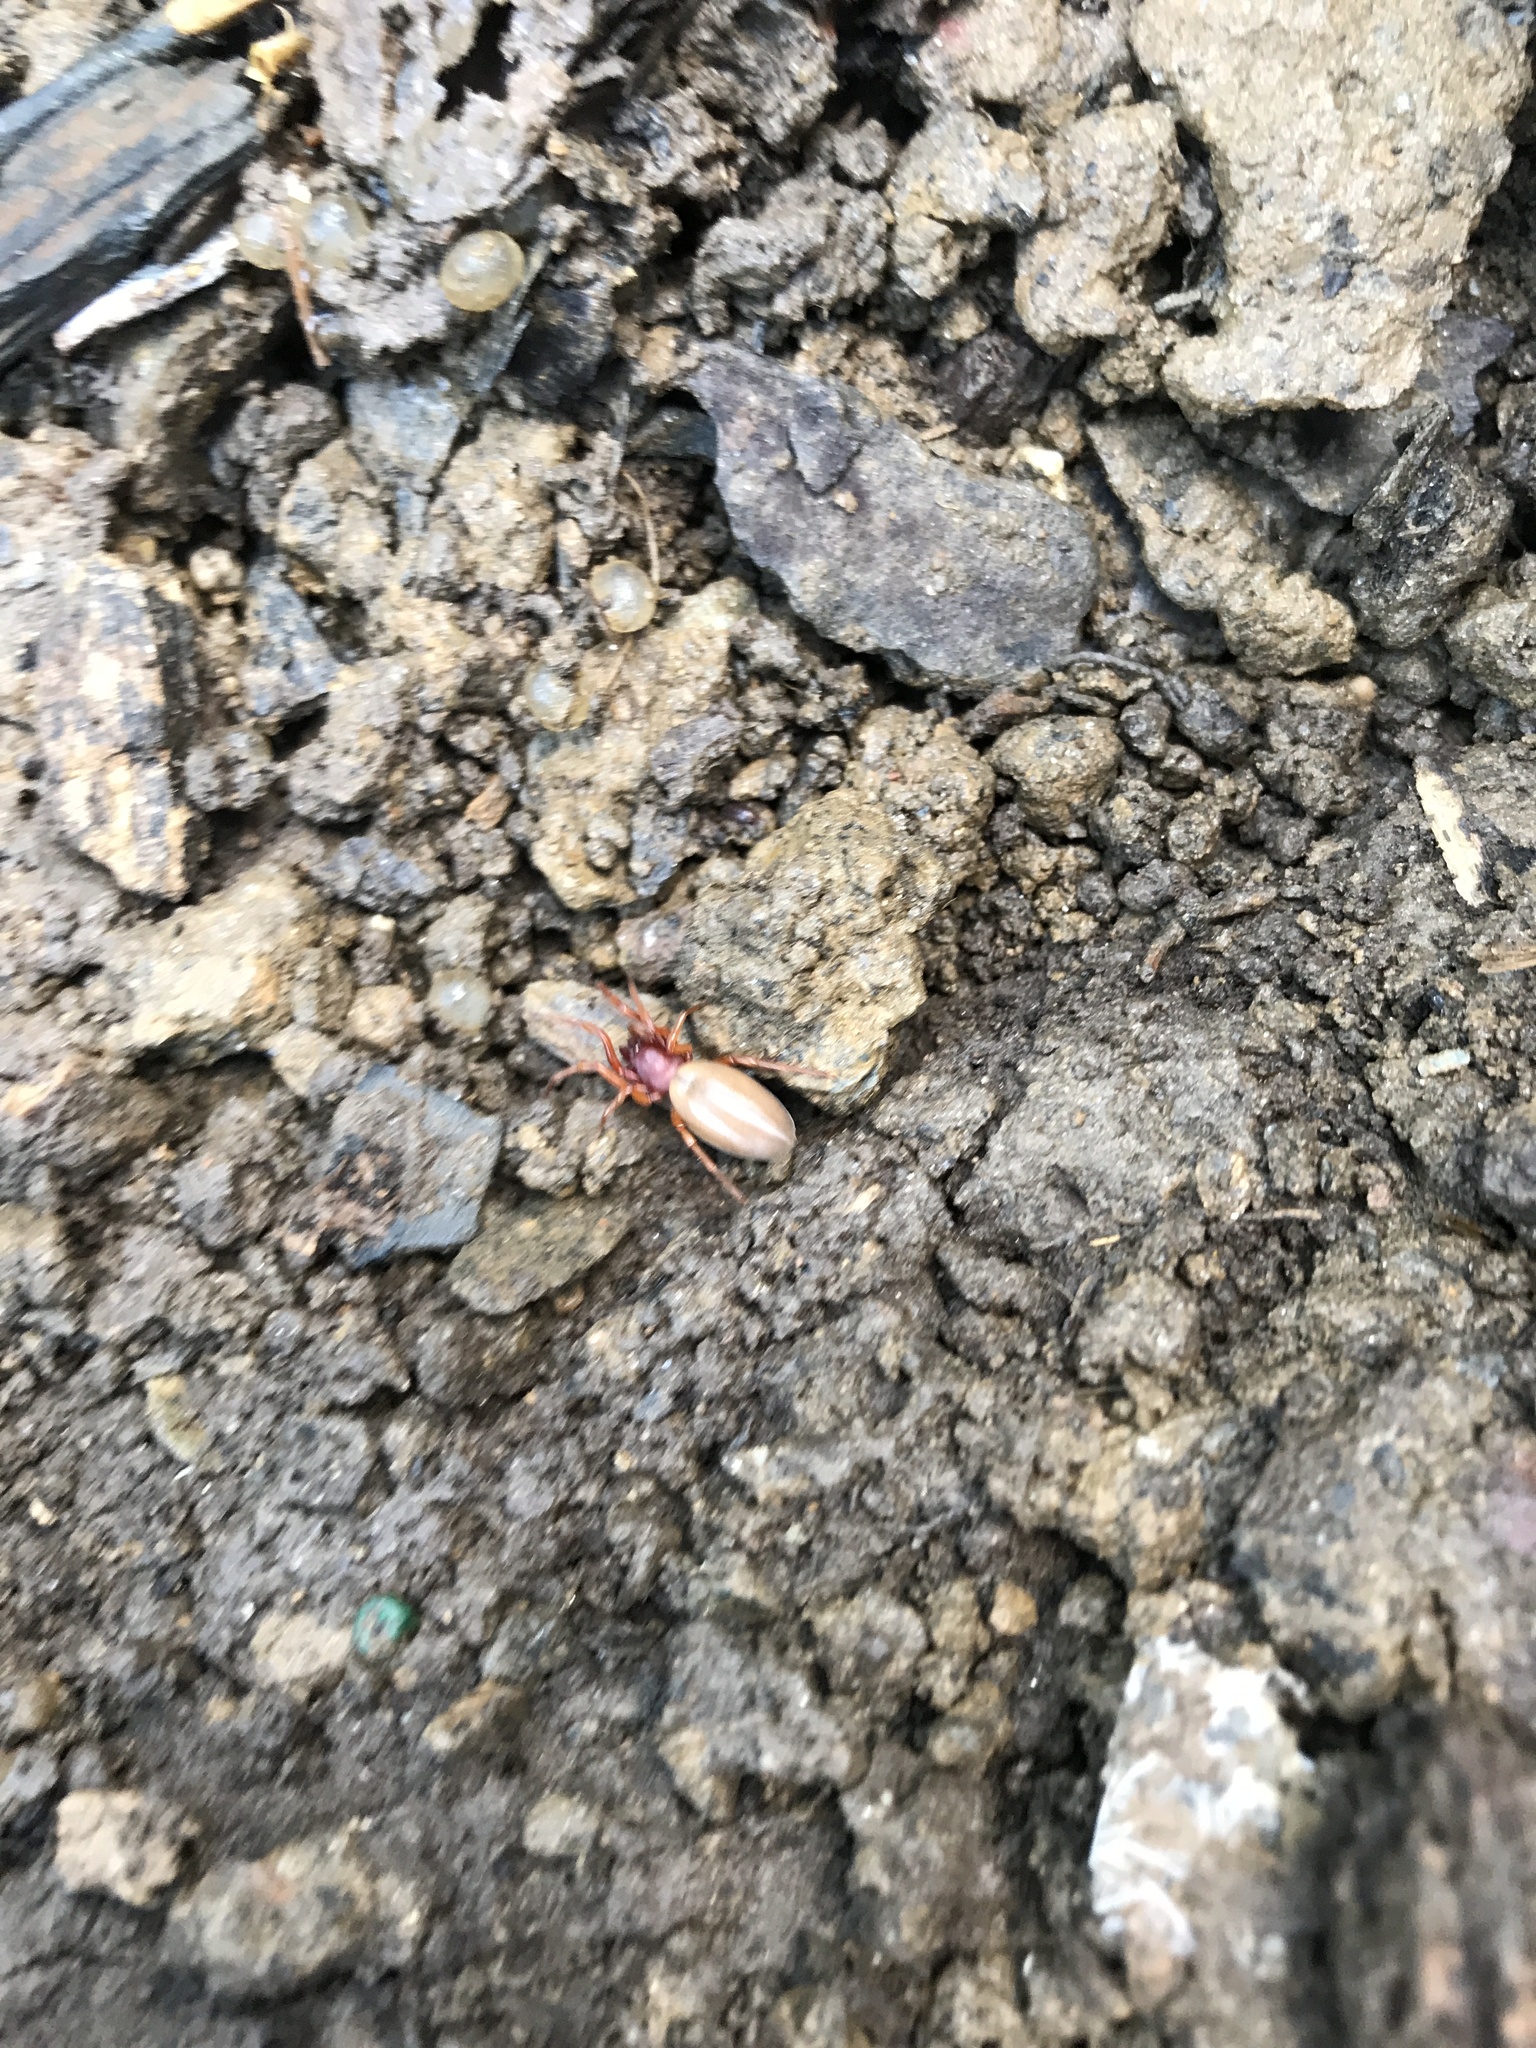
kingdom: Animalia
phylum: Arthropoda
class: Arachnida
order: Araneae
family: Dysderidae
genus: Dysdera
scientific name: Dysdera crocata
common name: Woodlouse spider
